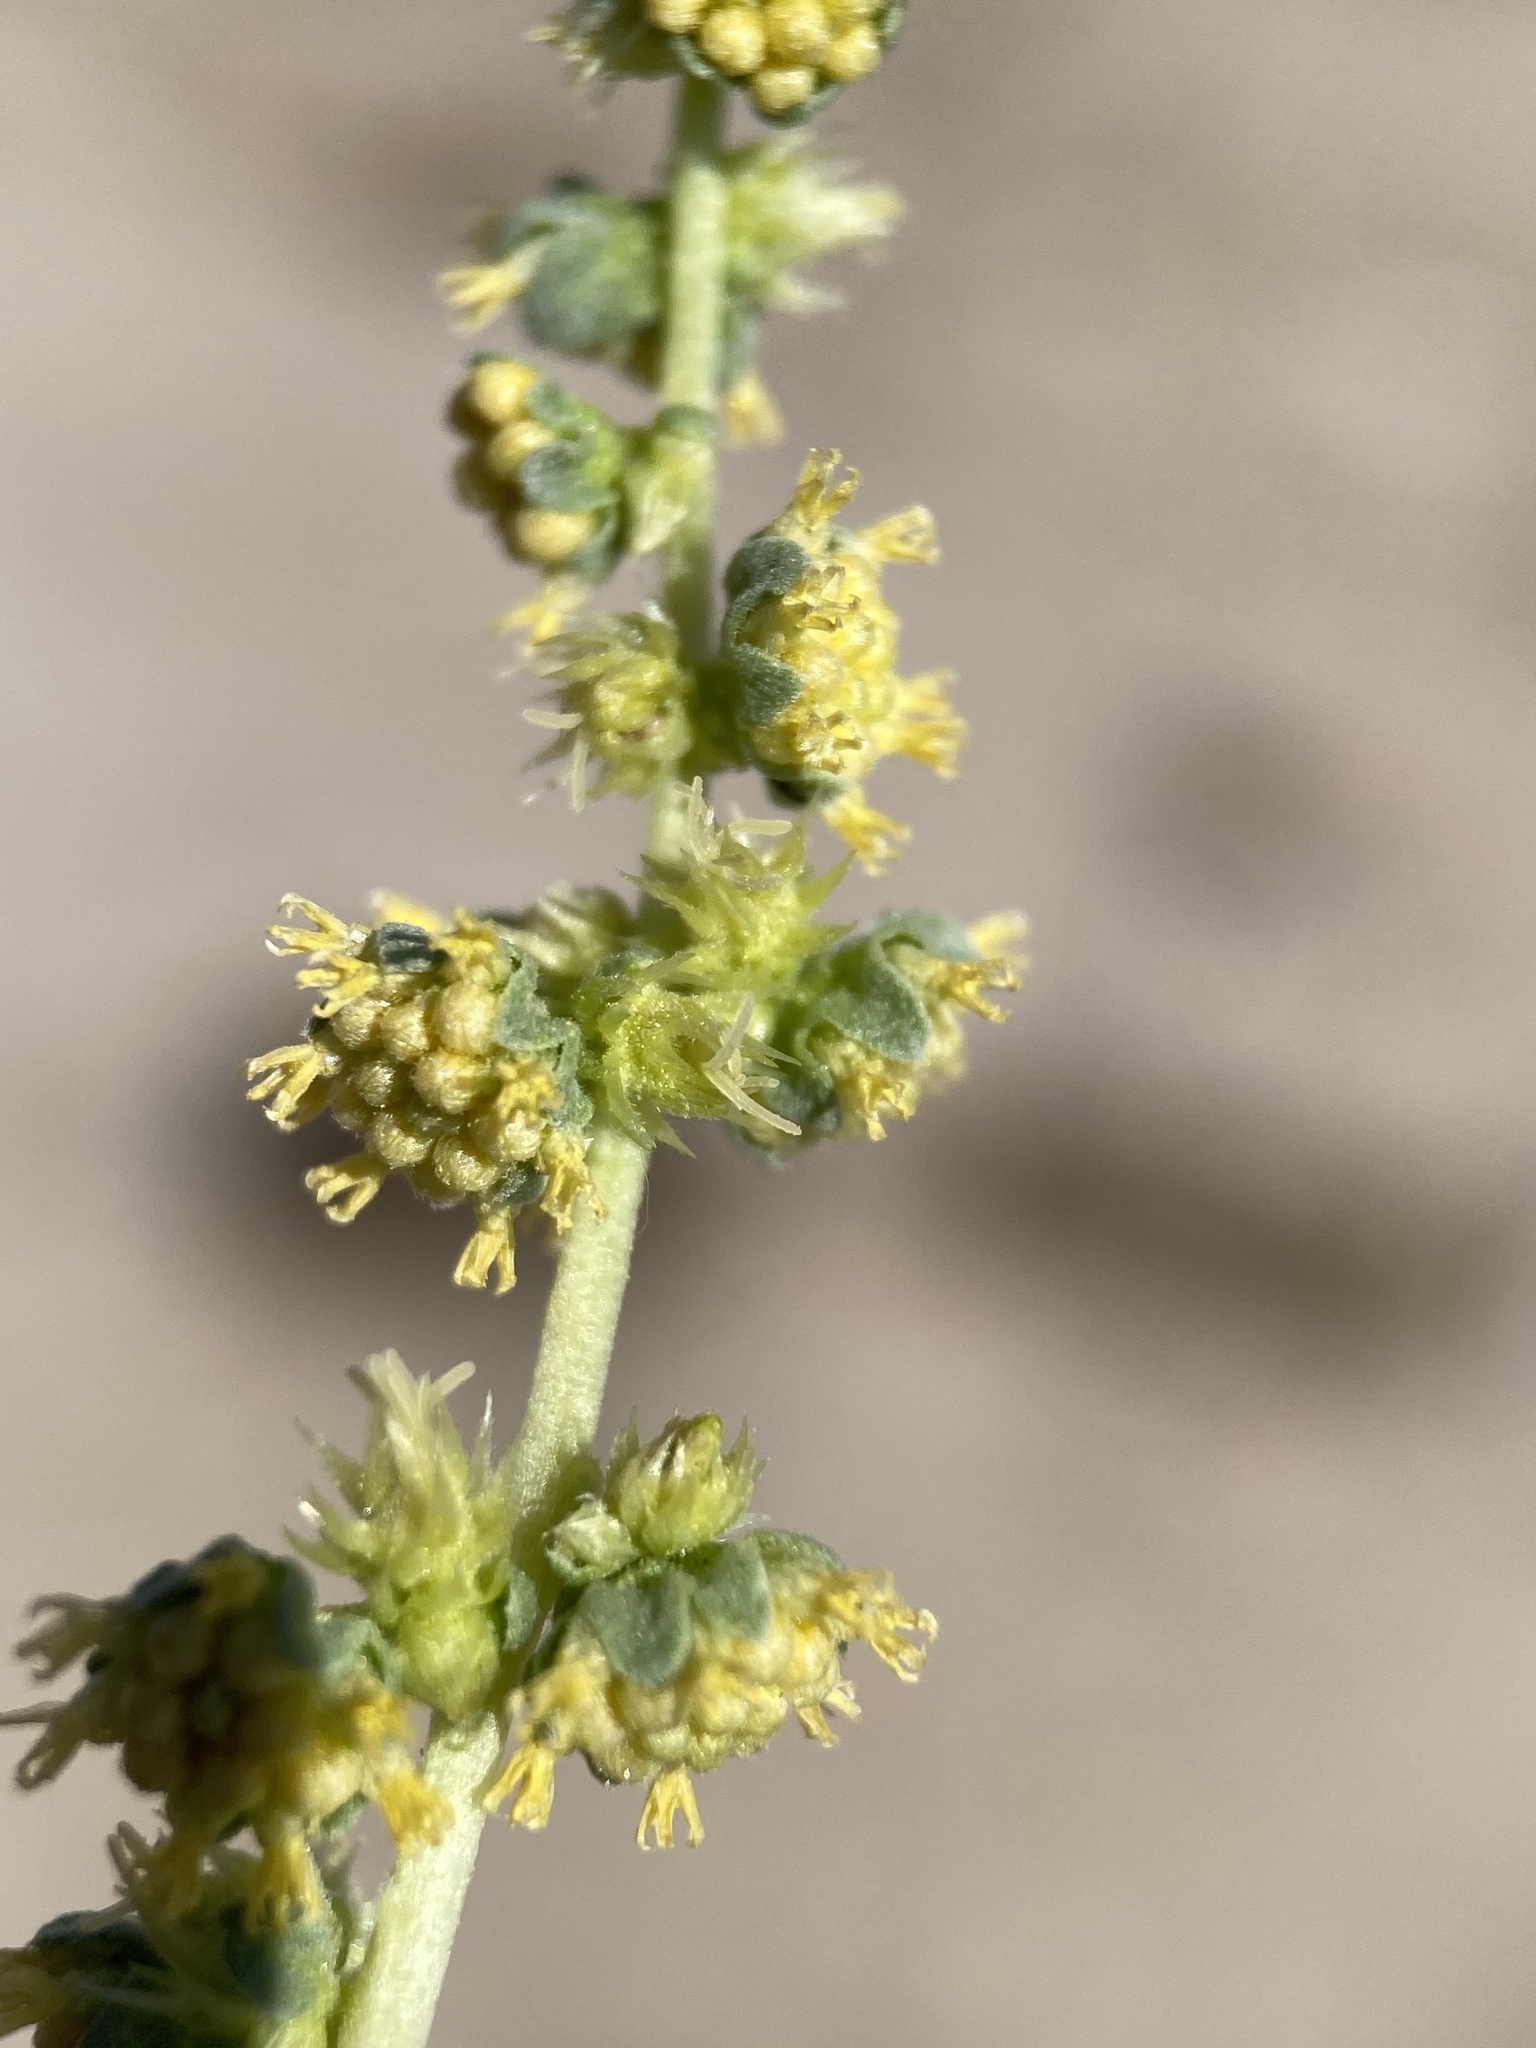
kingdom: Plantae
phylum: Tracheophyta
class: Magnoliopsida
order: Asterales
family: Asteraceae
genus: Ambrosia
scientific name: Ambrosia dumosa
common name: Bur-sage
